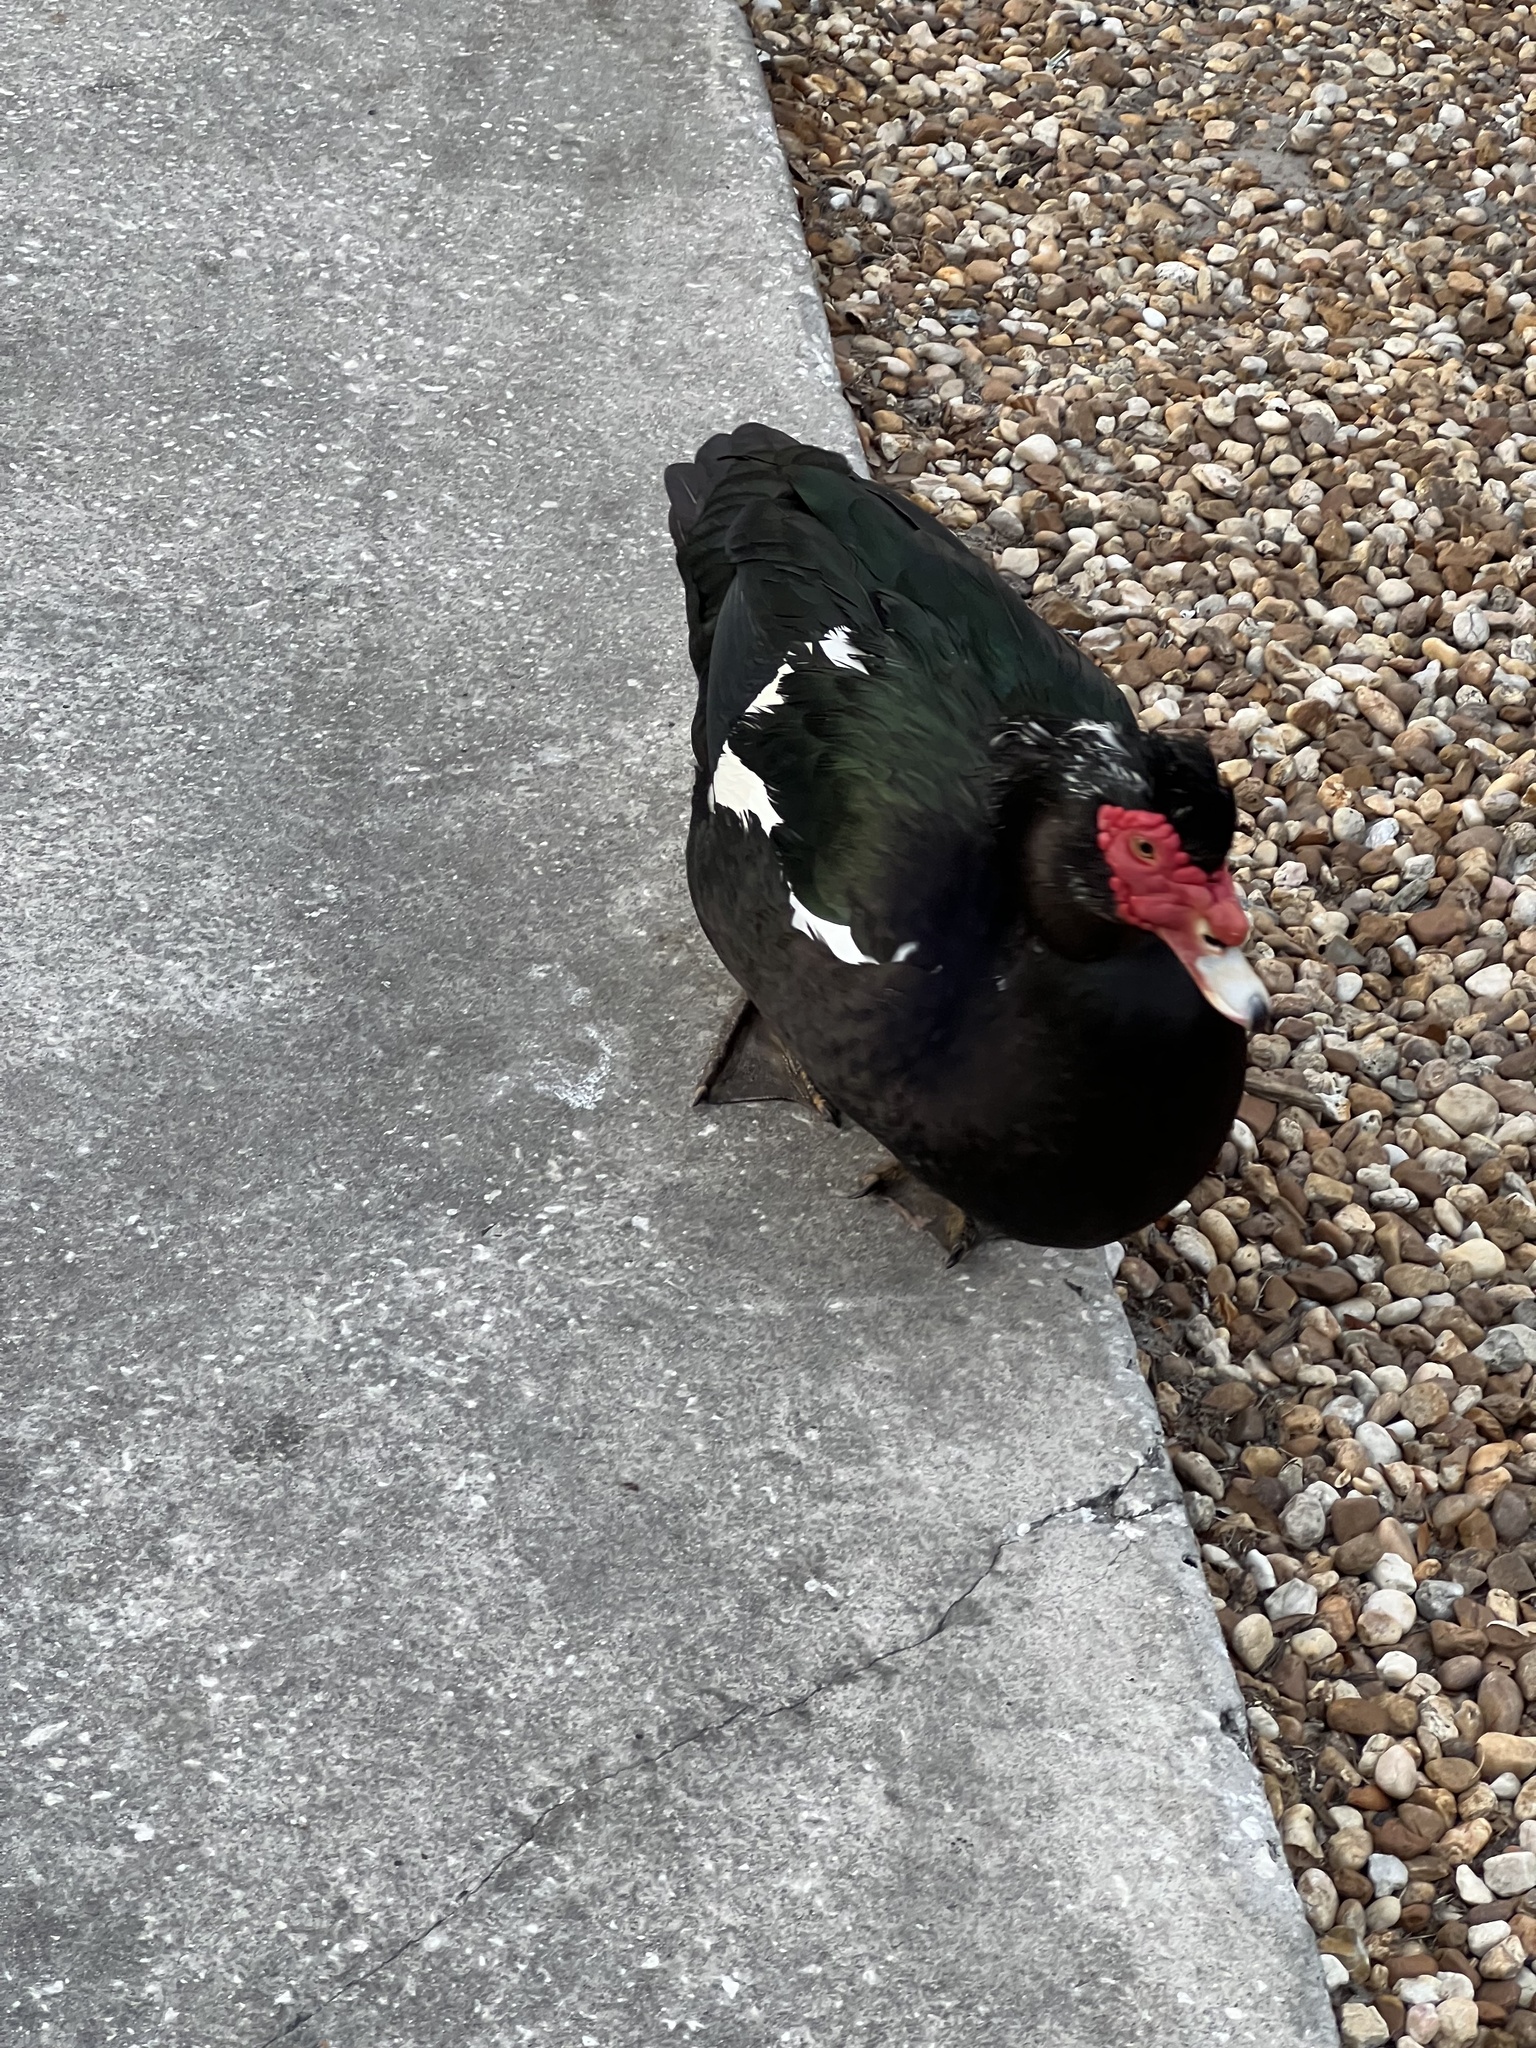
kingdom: Animalia
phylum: Chordata
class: Aves
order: Anseriformes
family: Anatidae
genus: Cairina
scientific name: Cairina moschata
